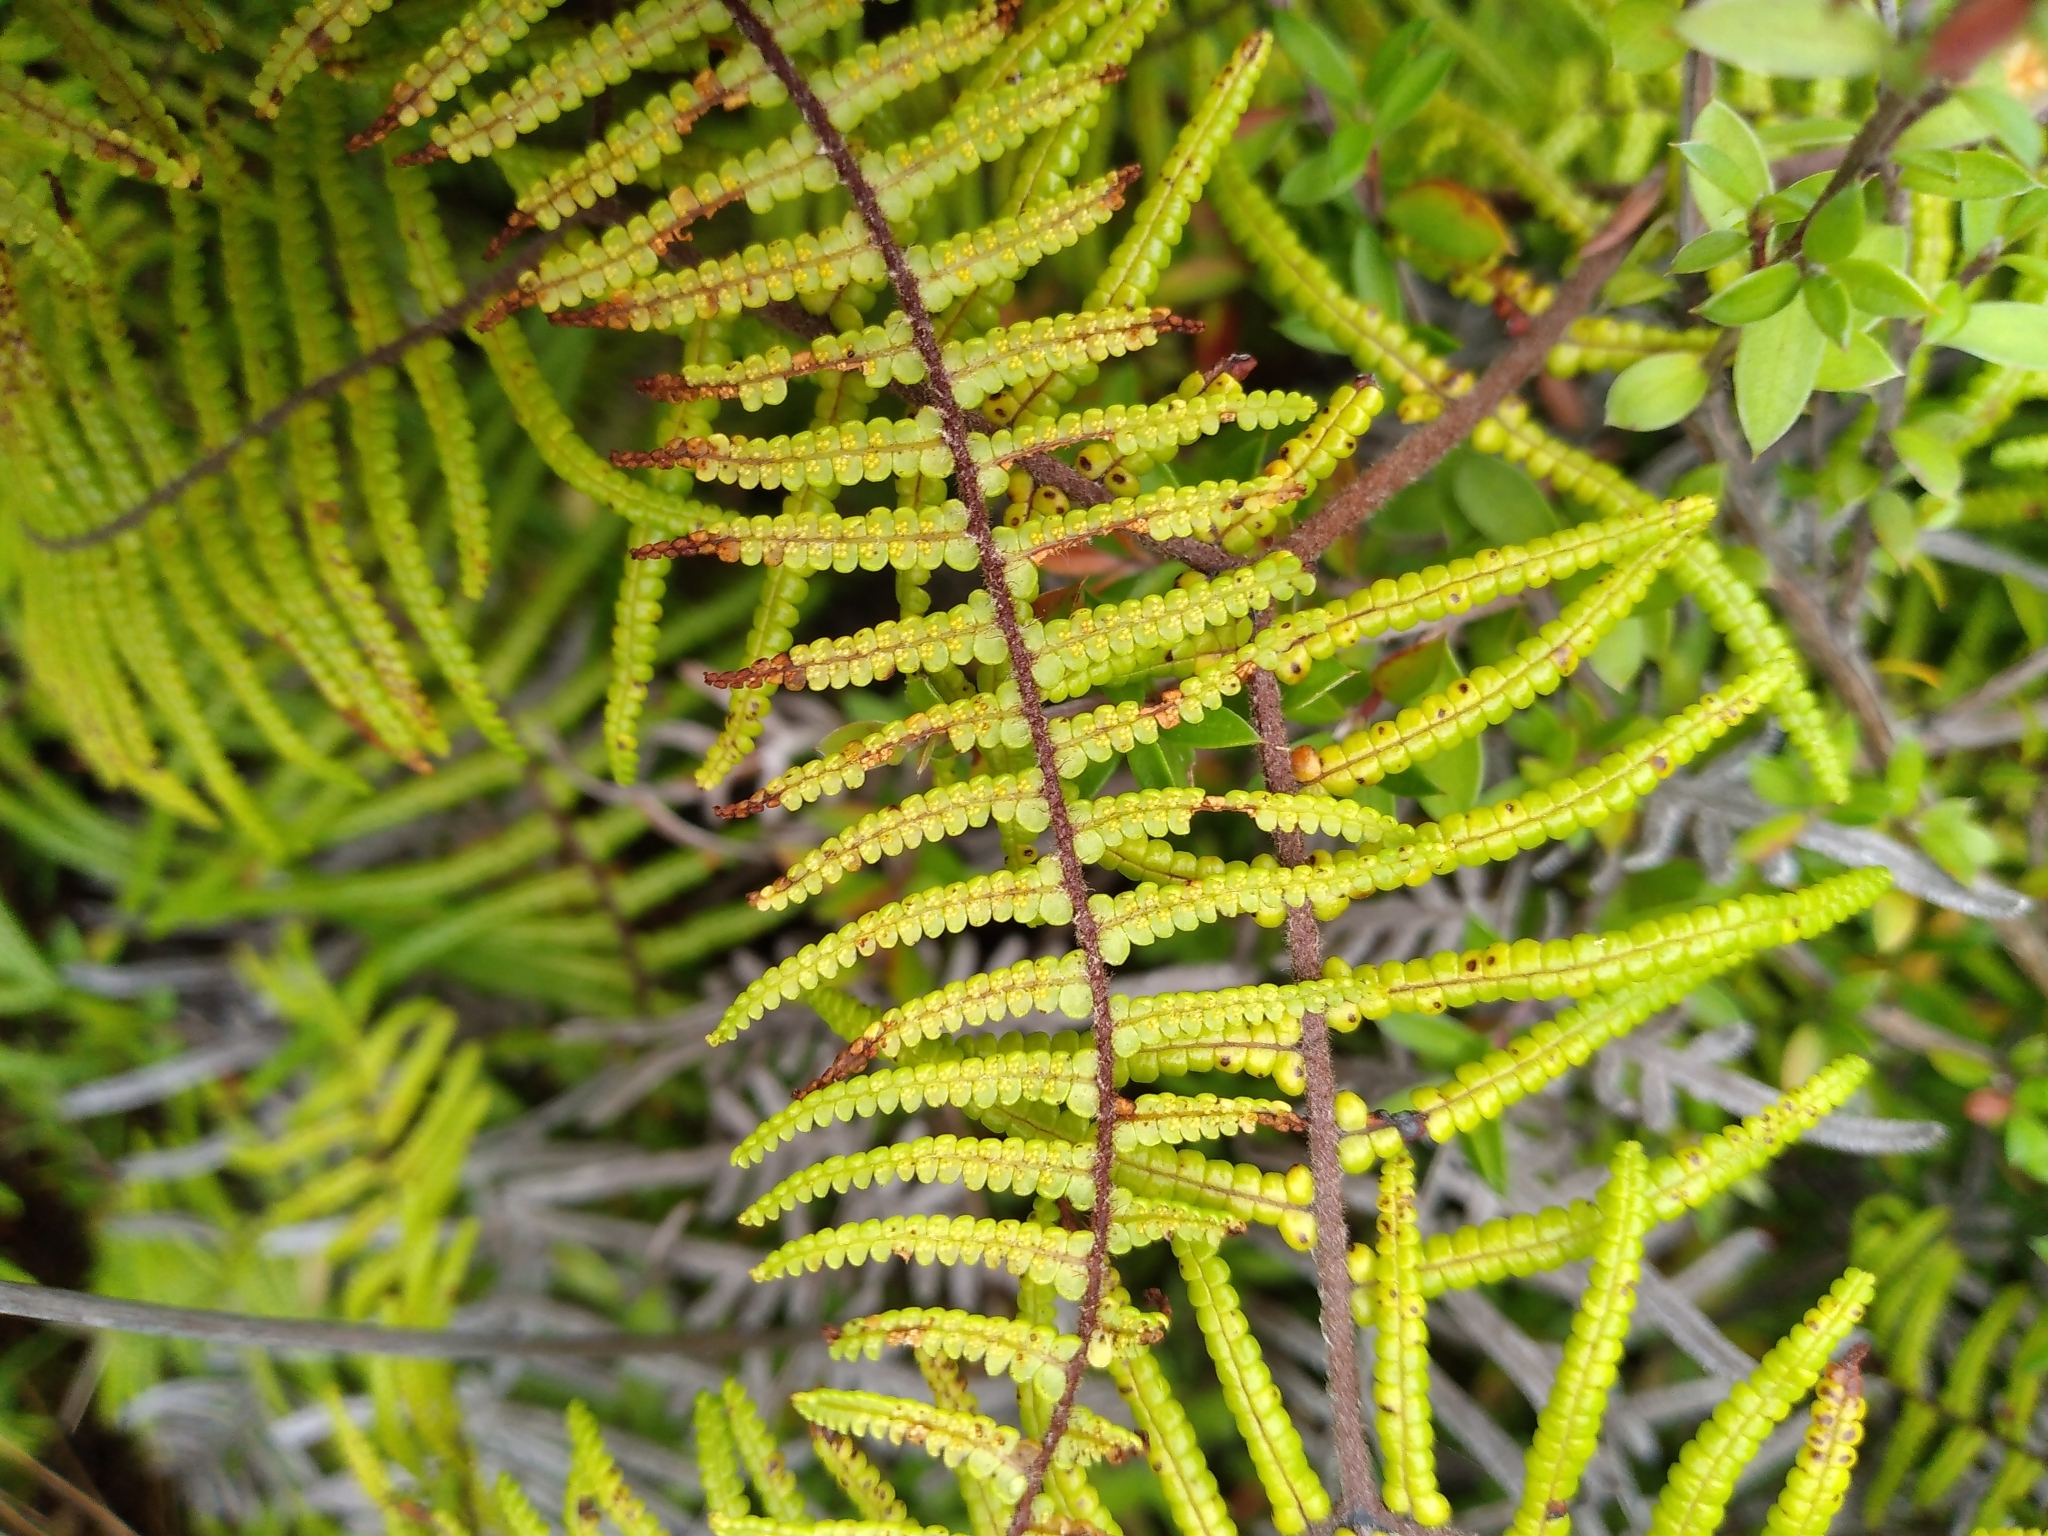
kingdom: Plantae
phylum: Tracheophyta
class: Polypodiopsida
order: Gleicheniales
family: Gleicheniaceae
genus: Gleichenia
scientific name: Gleichenia microphylla
